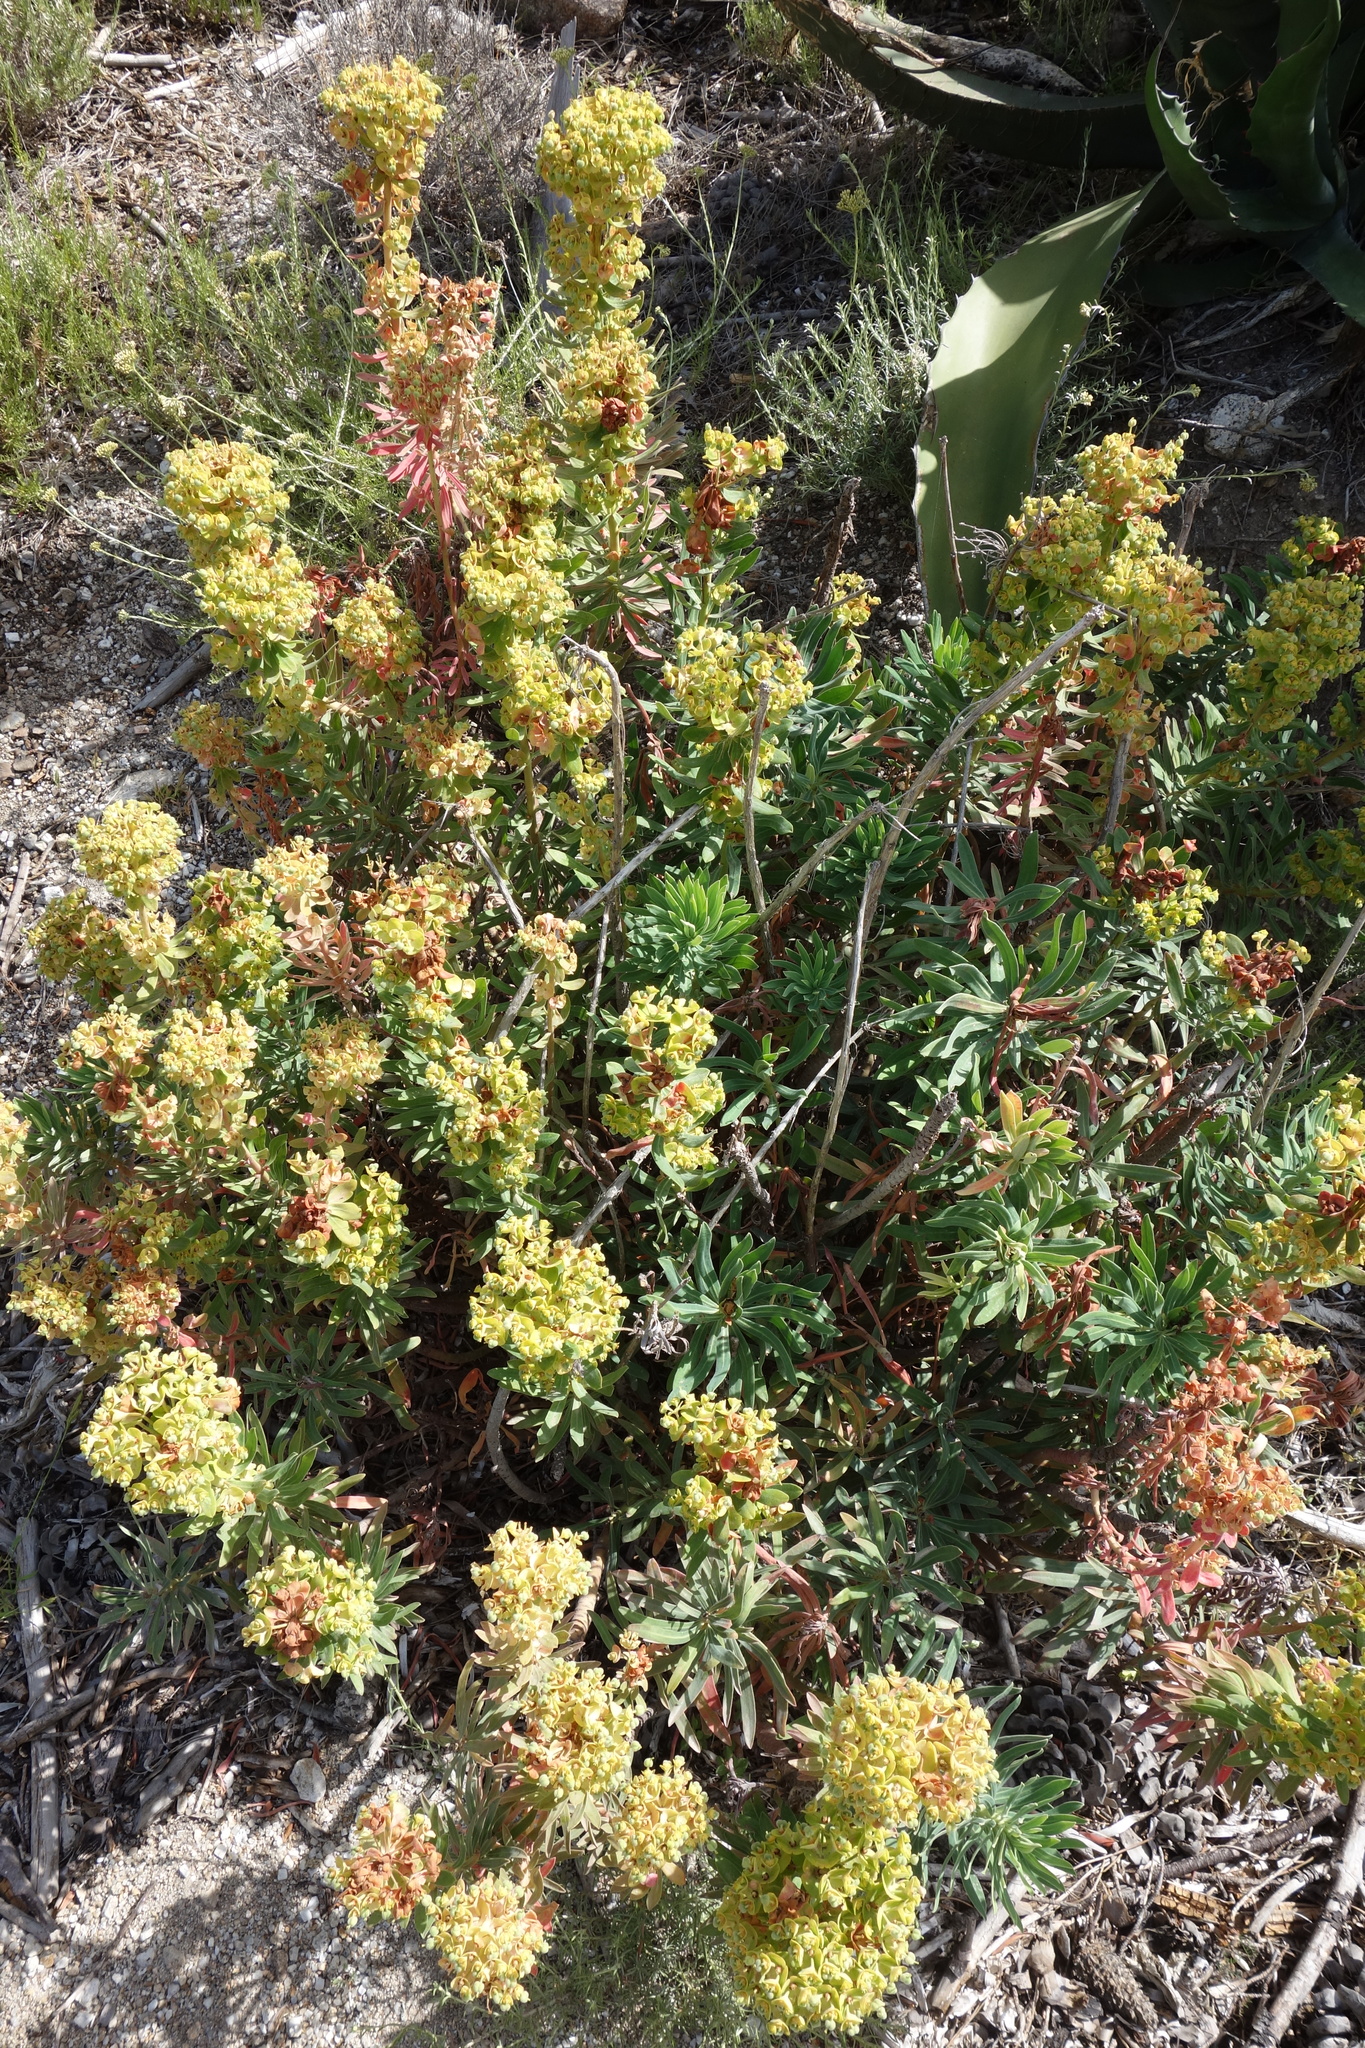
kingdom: Plantae
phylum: Tracheophyta
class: Magnoliopsida
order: Malpighiales
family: Euphorbiaceae
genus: Euphorbia
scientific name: Euphorbia characias
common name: Mediterranean spurge
